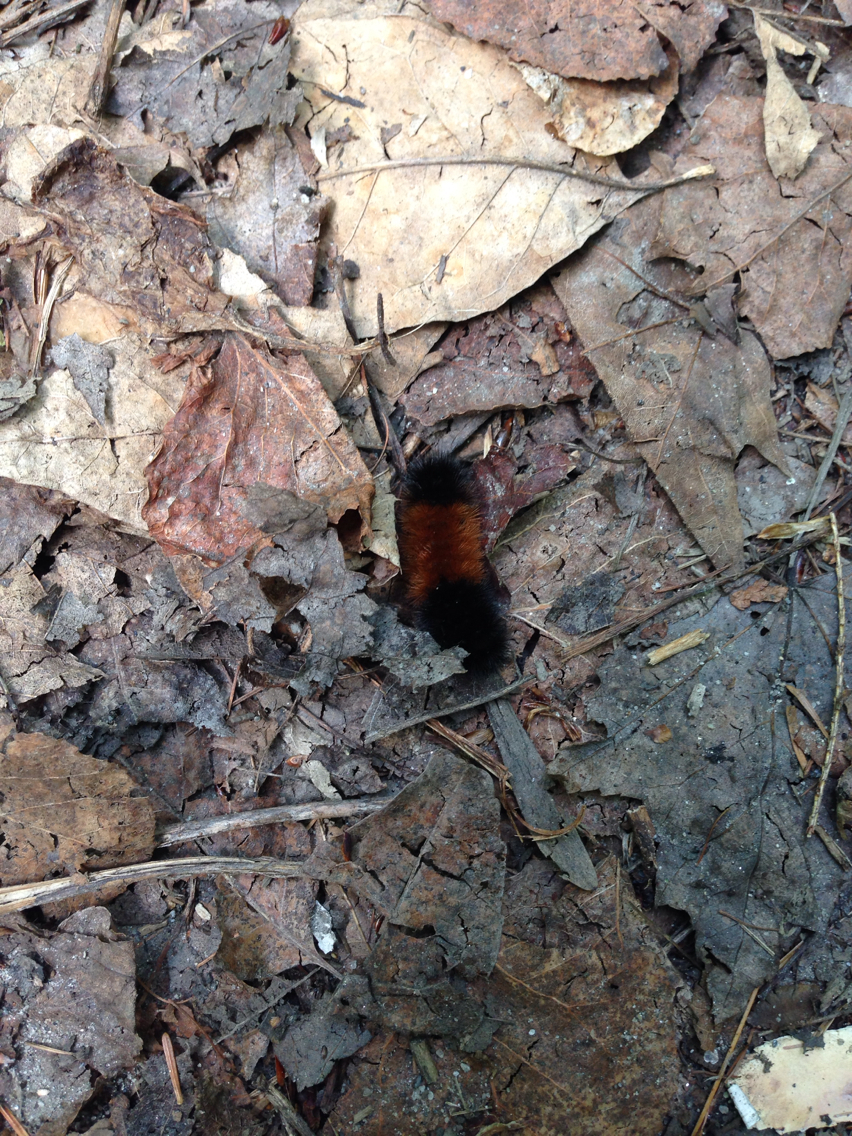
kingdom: Animalia
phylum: Arthropoda
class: Insecta
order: Lepidoptera
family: Erebidae
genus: Pyrrharctia
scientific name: Pyrrharctia isabella
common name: Isabella tiger moth
